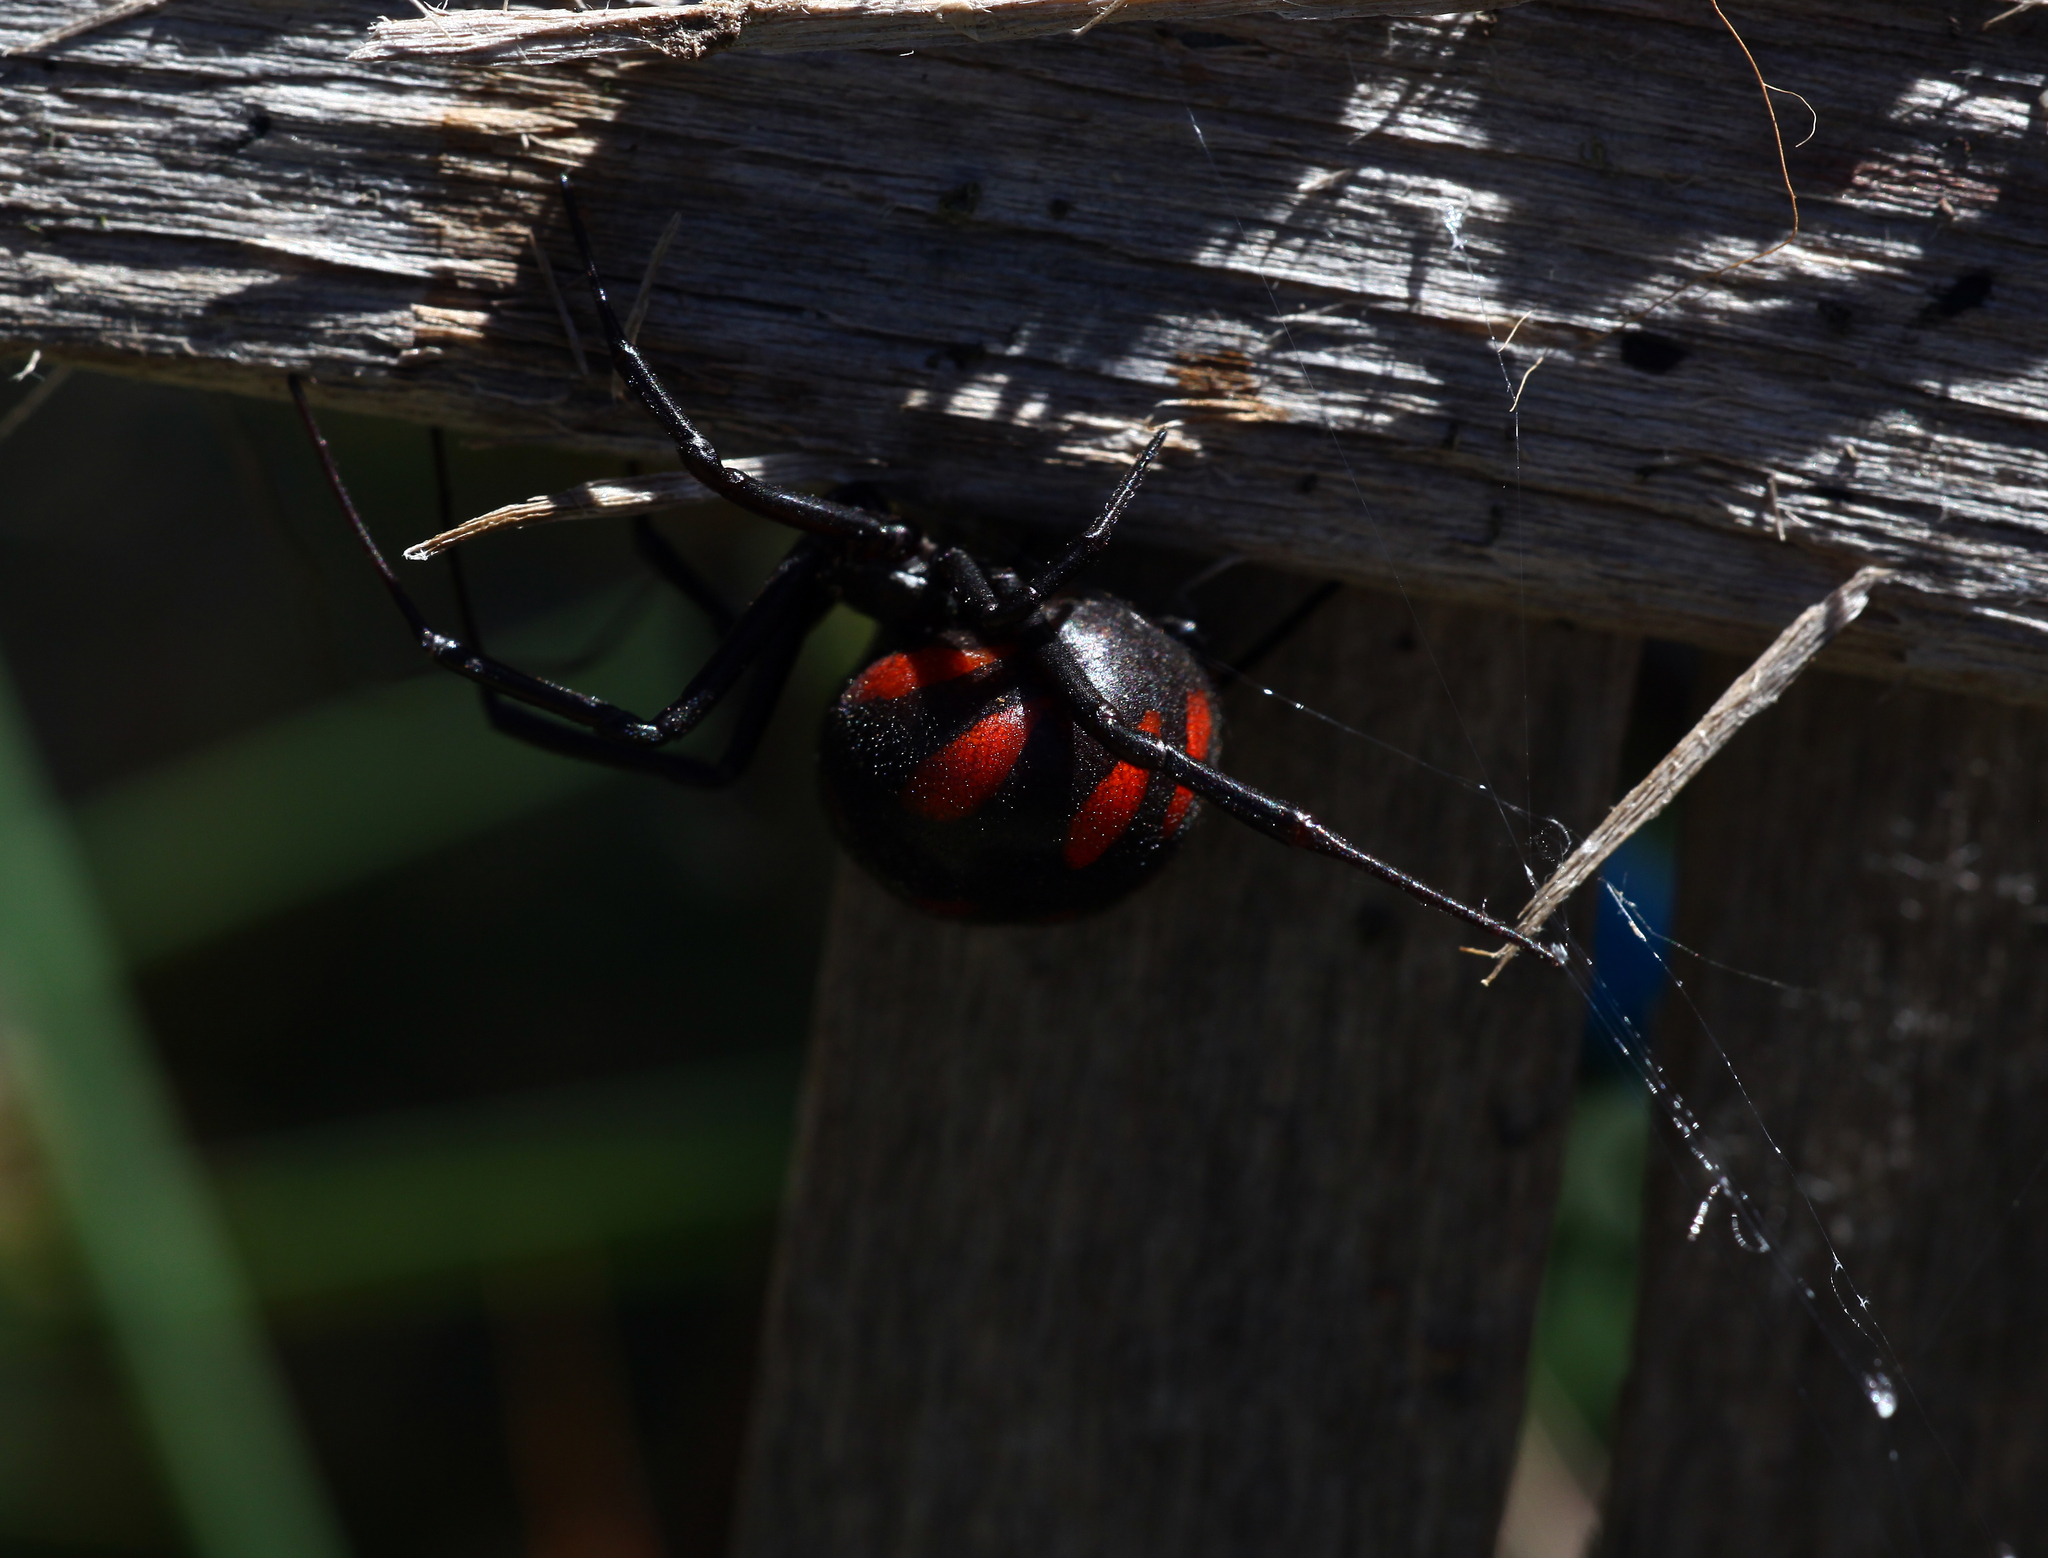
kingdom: Animalia
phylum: Arthropoda
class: Arachnida
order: Araneae
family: Theridiidae
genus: Latrodectus
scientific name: Latrodectus tredecimguttatus
